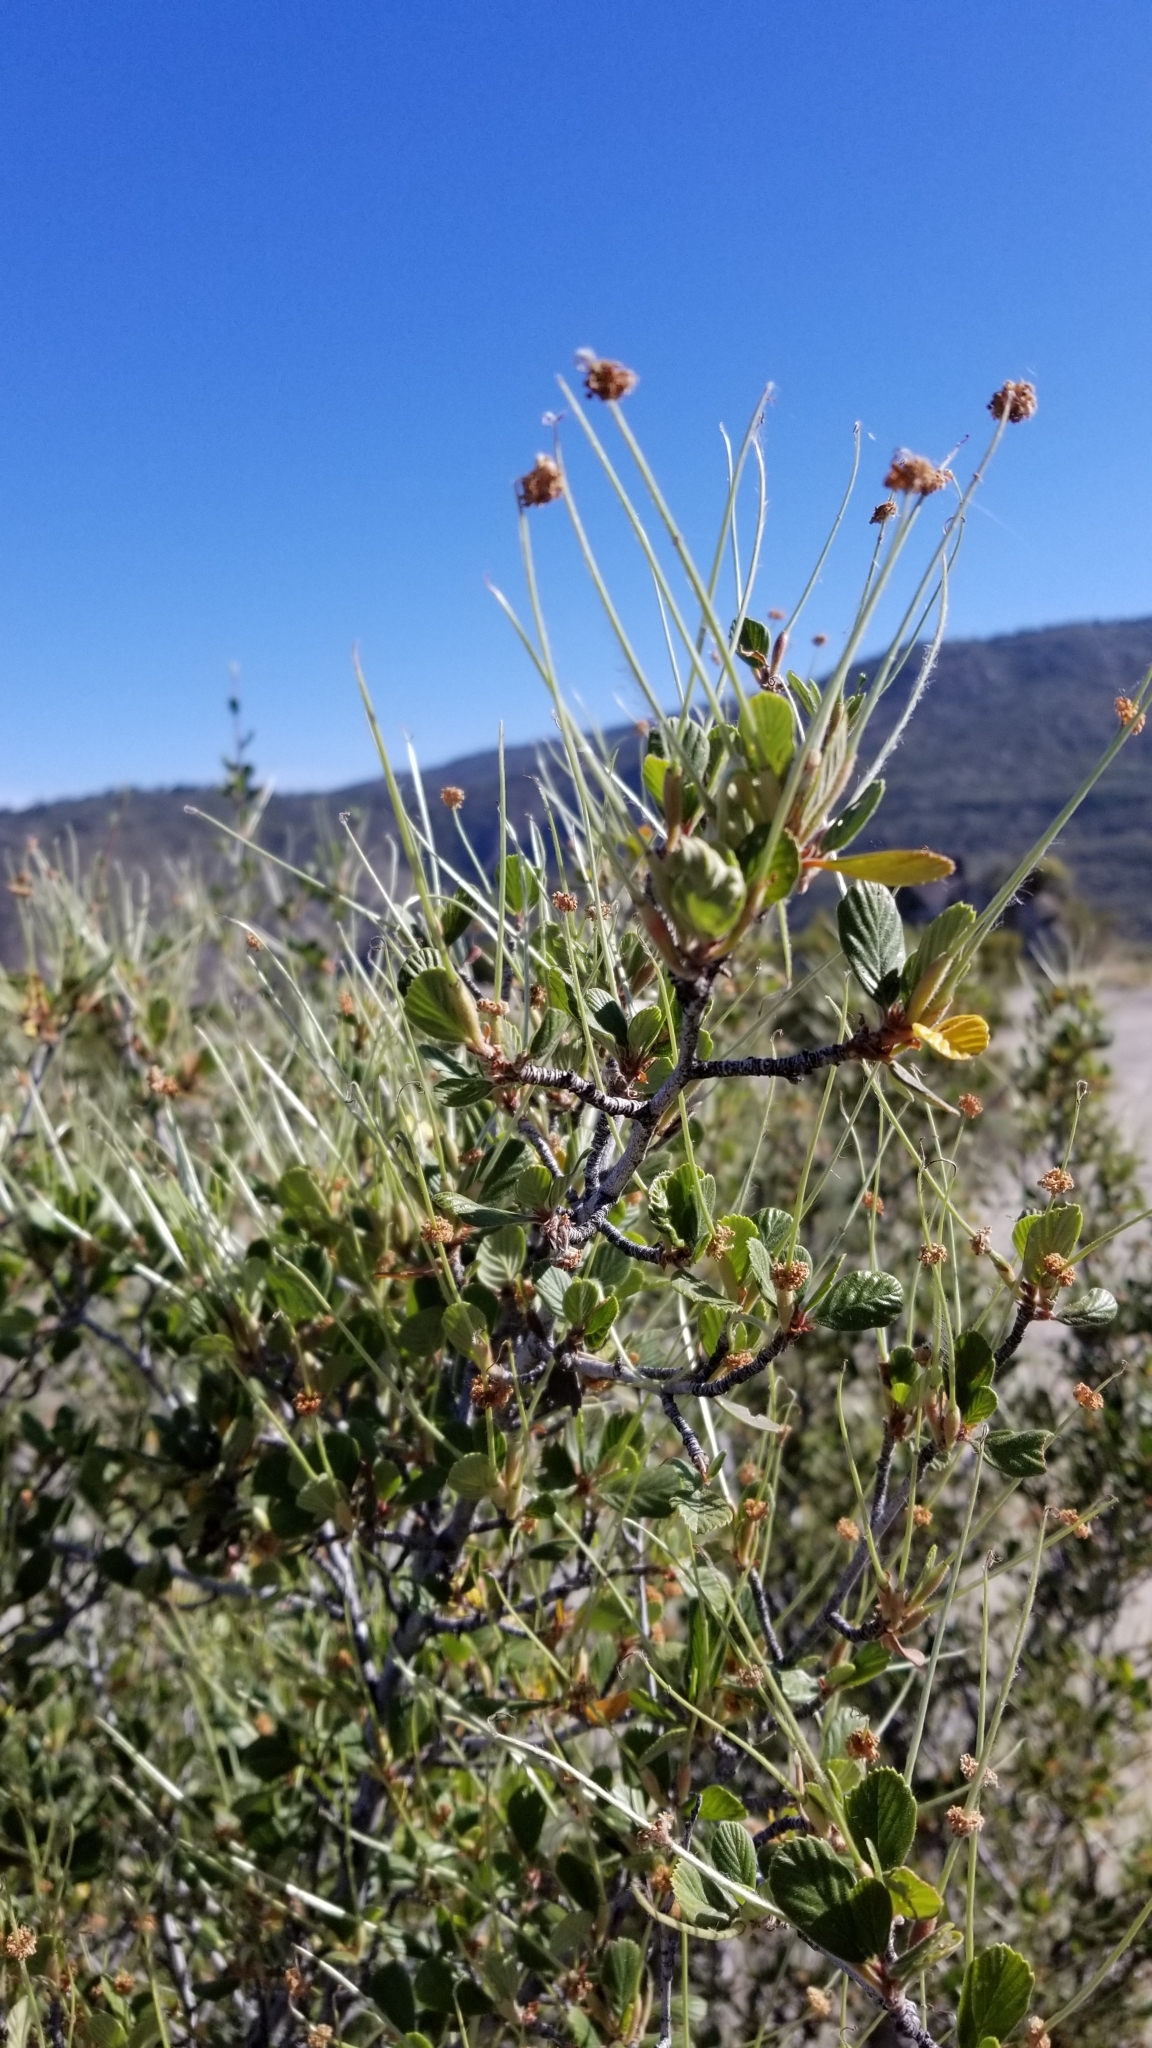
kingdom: Plantae
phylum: Tracheophyta
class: Magnoliopsida
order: Rosales
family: Rosaceae
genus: Cercocarpus
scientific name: Cercocarpus betuloides
